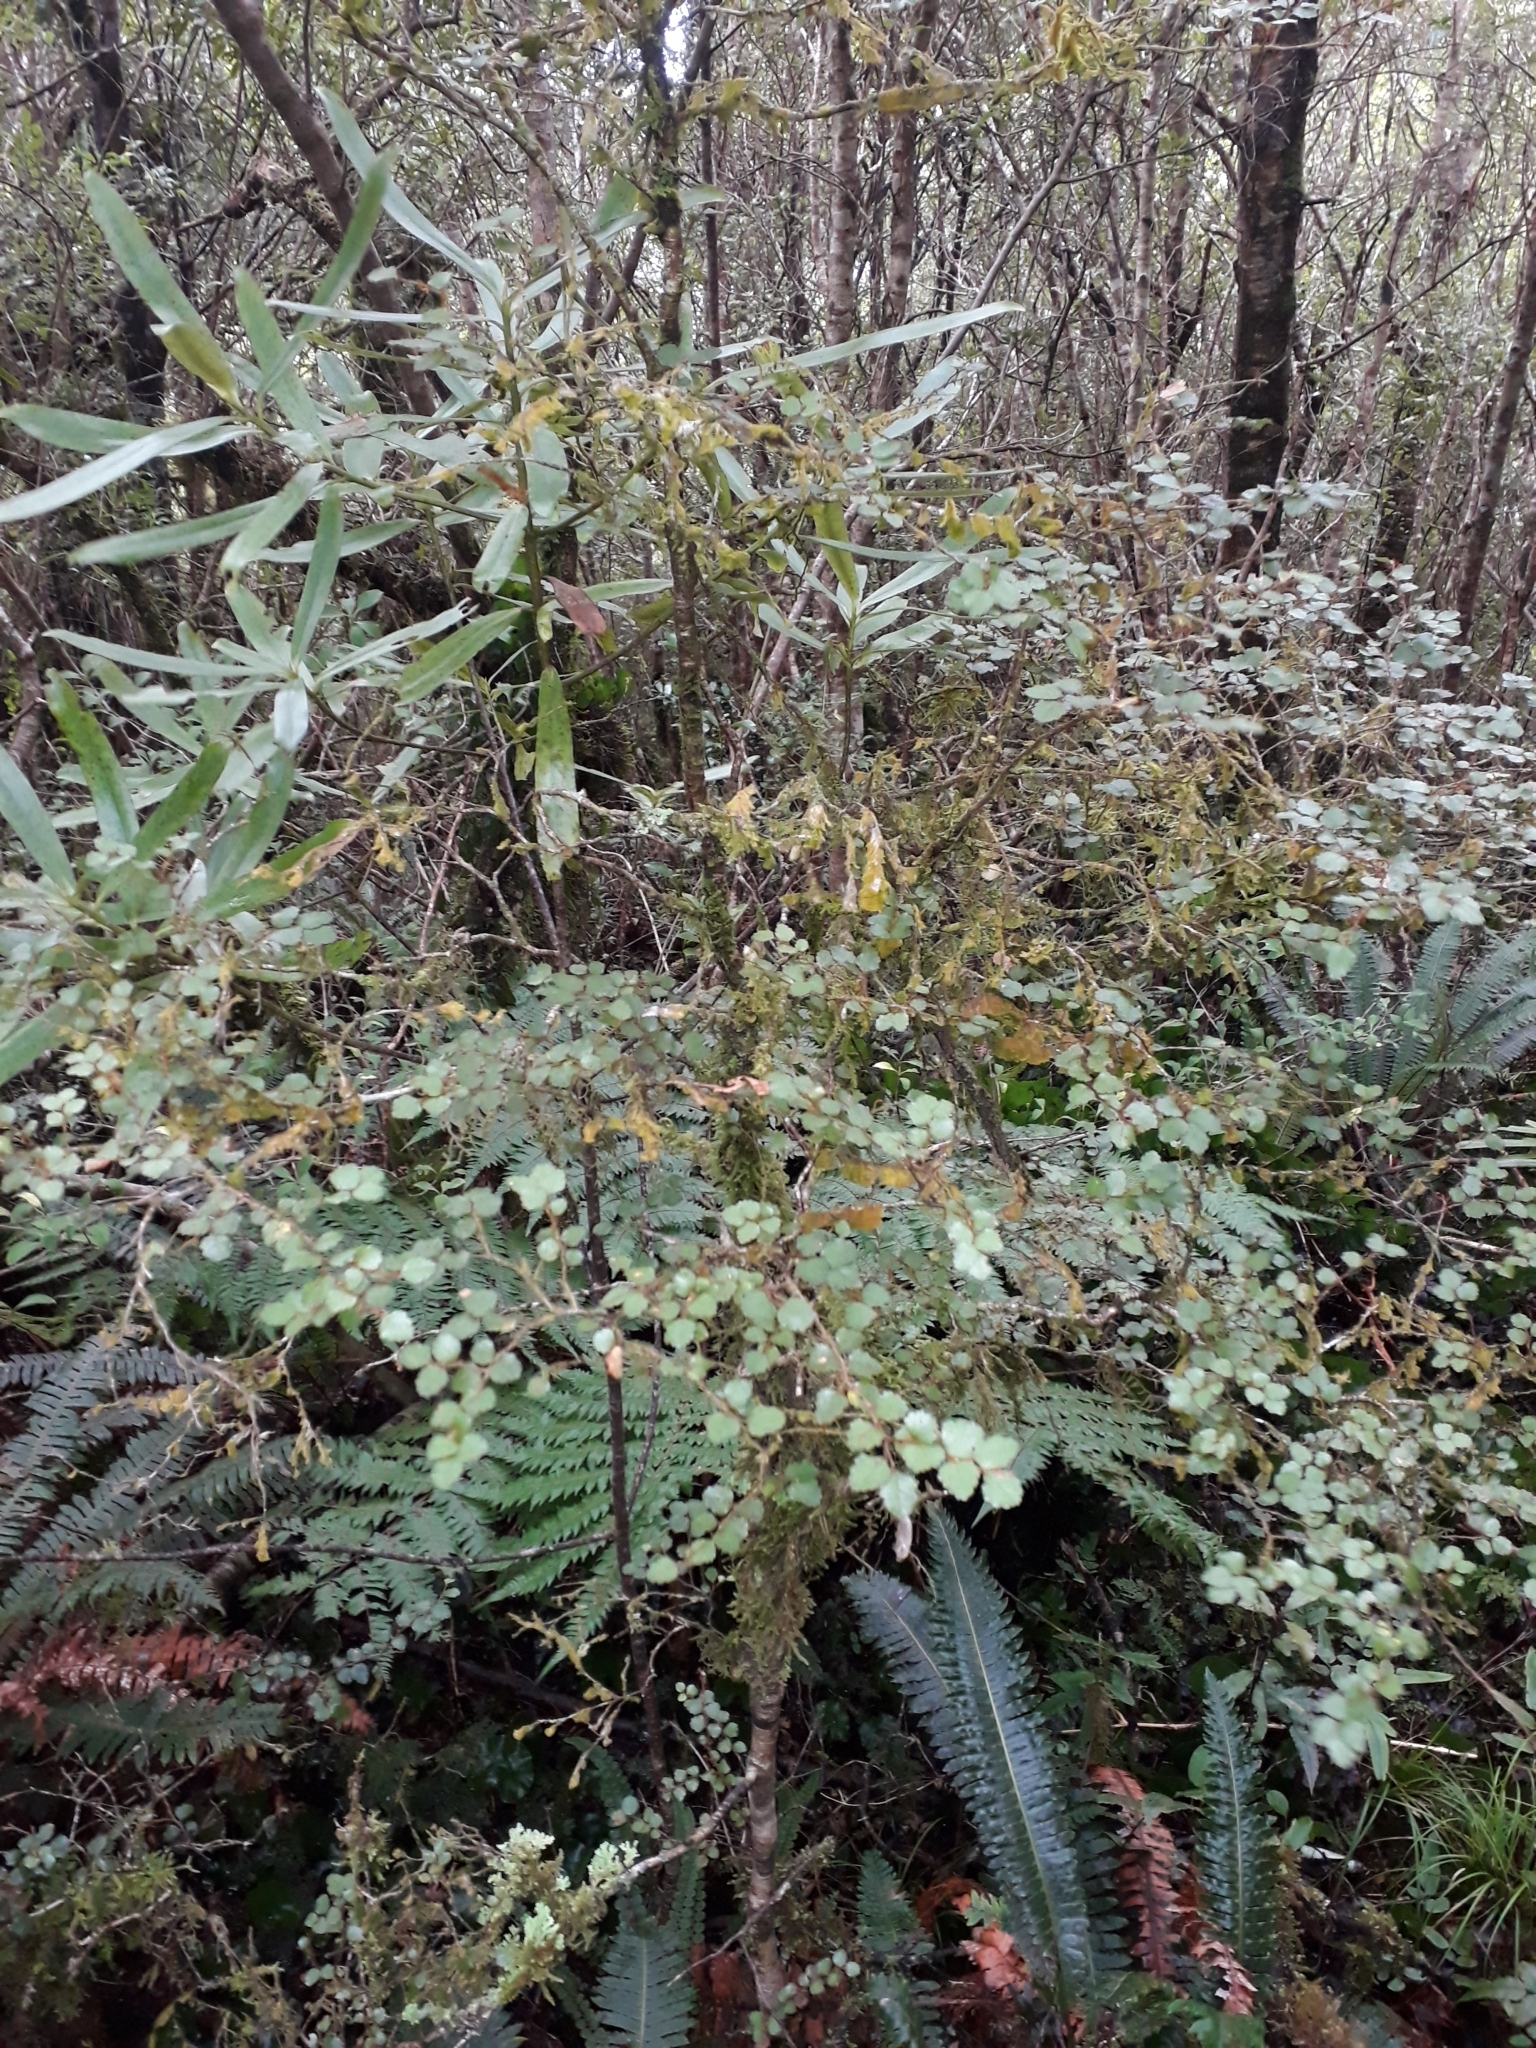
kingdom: Plantae
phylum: Tracheophyta
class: Magnoliopsida
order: Fagales
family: Nothofagaceae
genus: Nothofagus
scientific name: Nothofagus menziesii
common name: Silver beech
